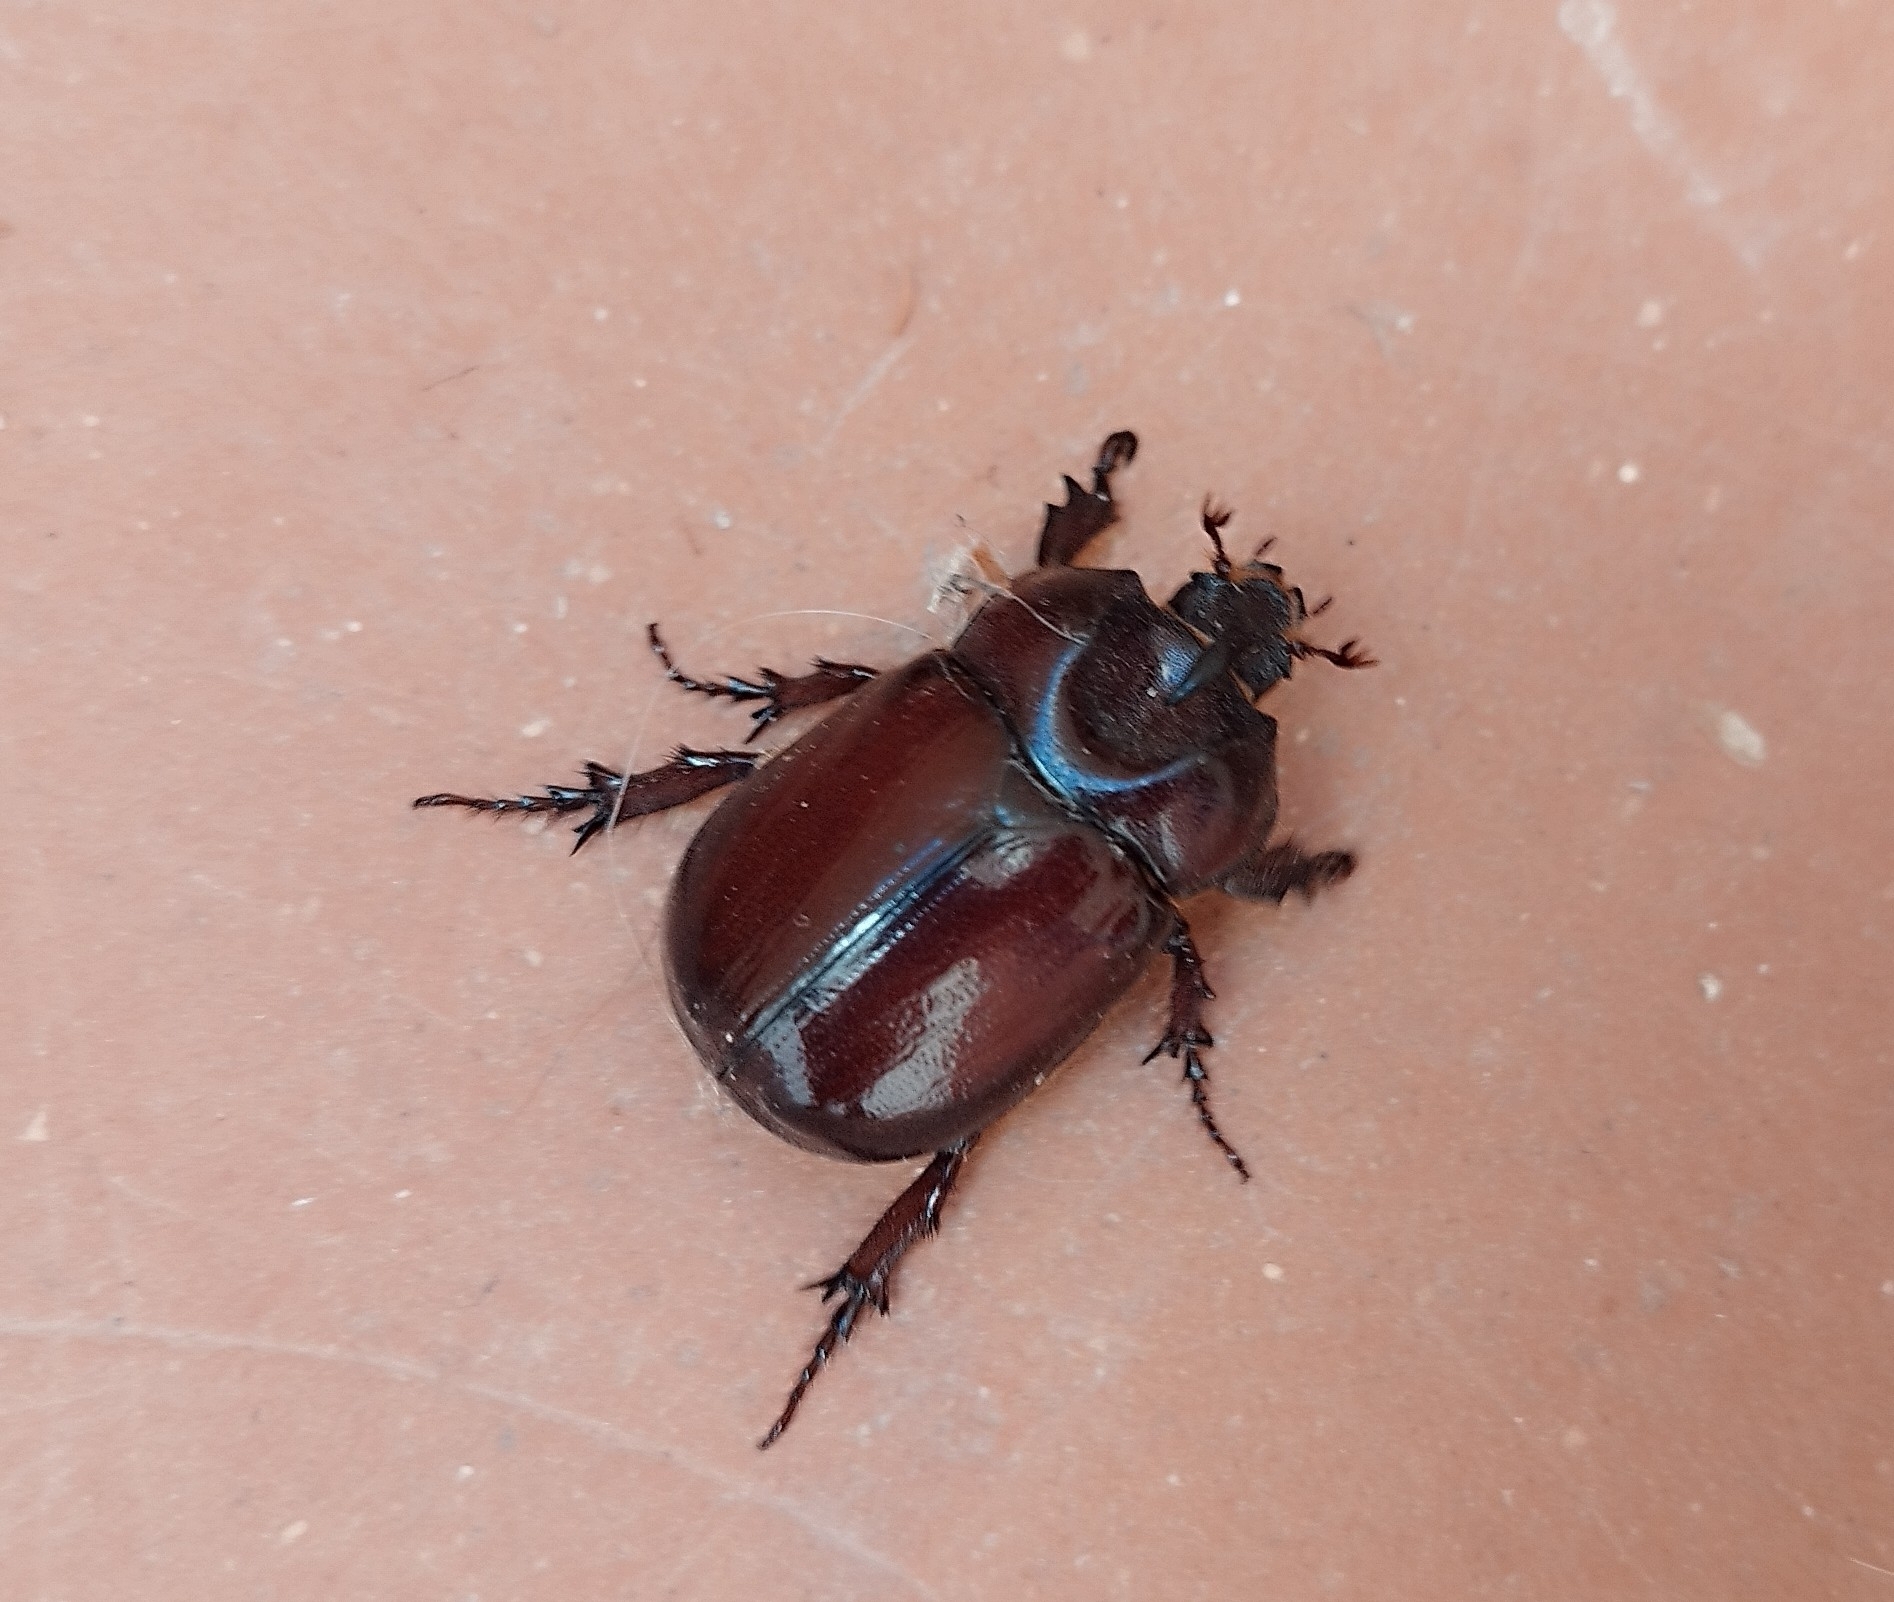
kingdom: Animalia
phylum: Arthropoda
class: Insecta
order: Coleoptera
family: Scarabaeidae
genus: Phyllognathus
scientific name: Phyllognathus excavatus
